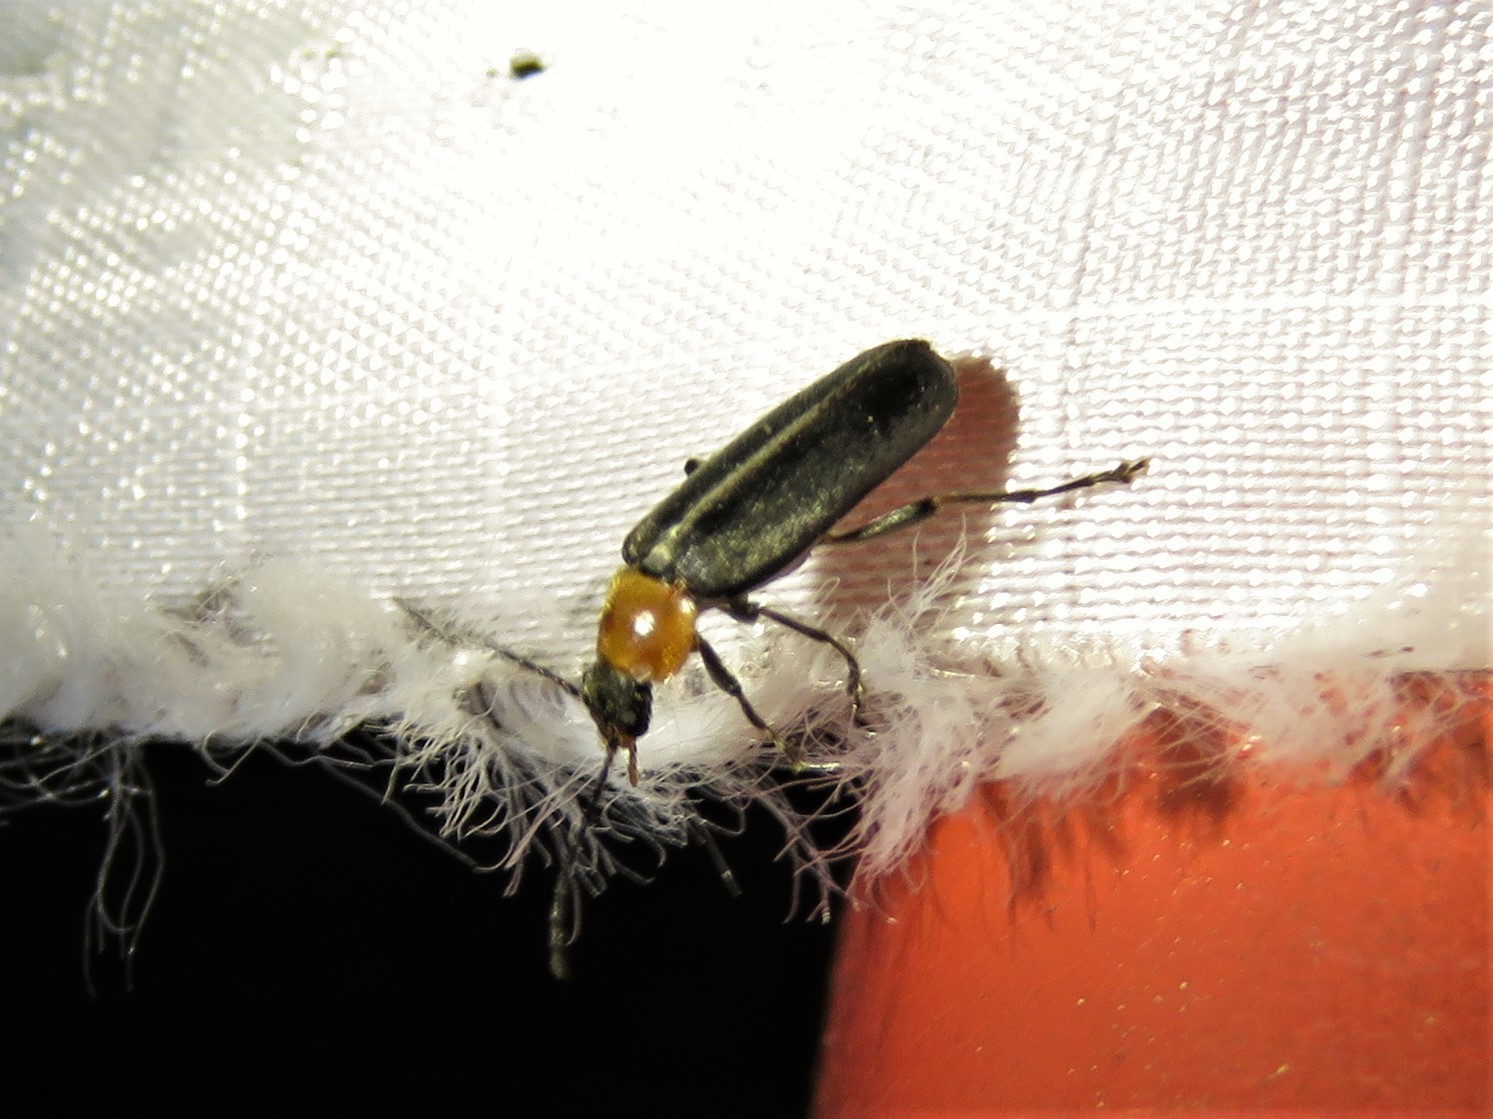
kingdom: Animalia
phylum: Arthropoda
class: Insecta
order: Coleoptera
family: Melandryidae
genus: Osphya
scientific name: Osphya varians
